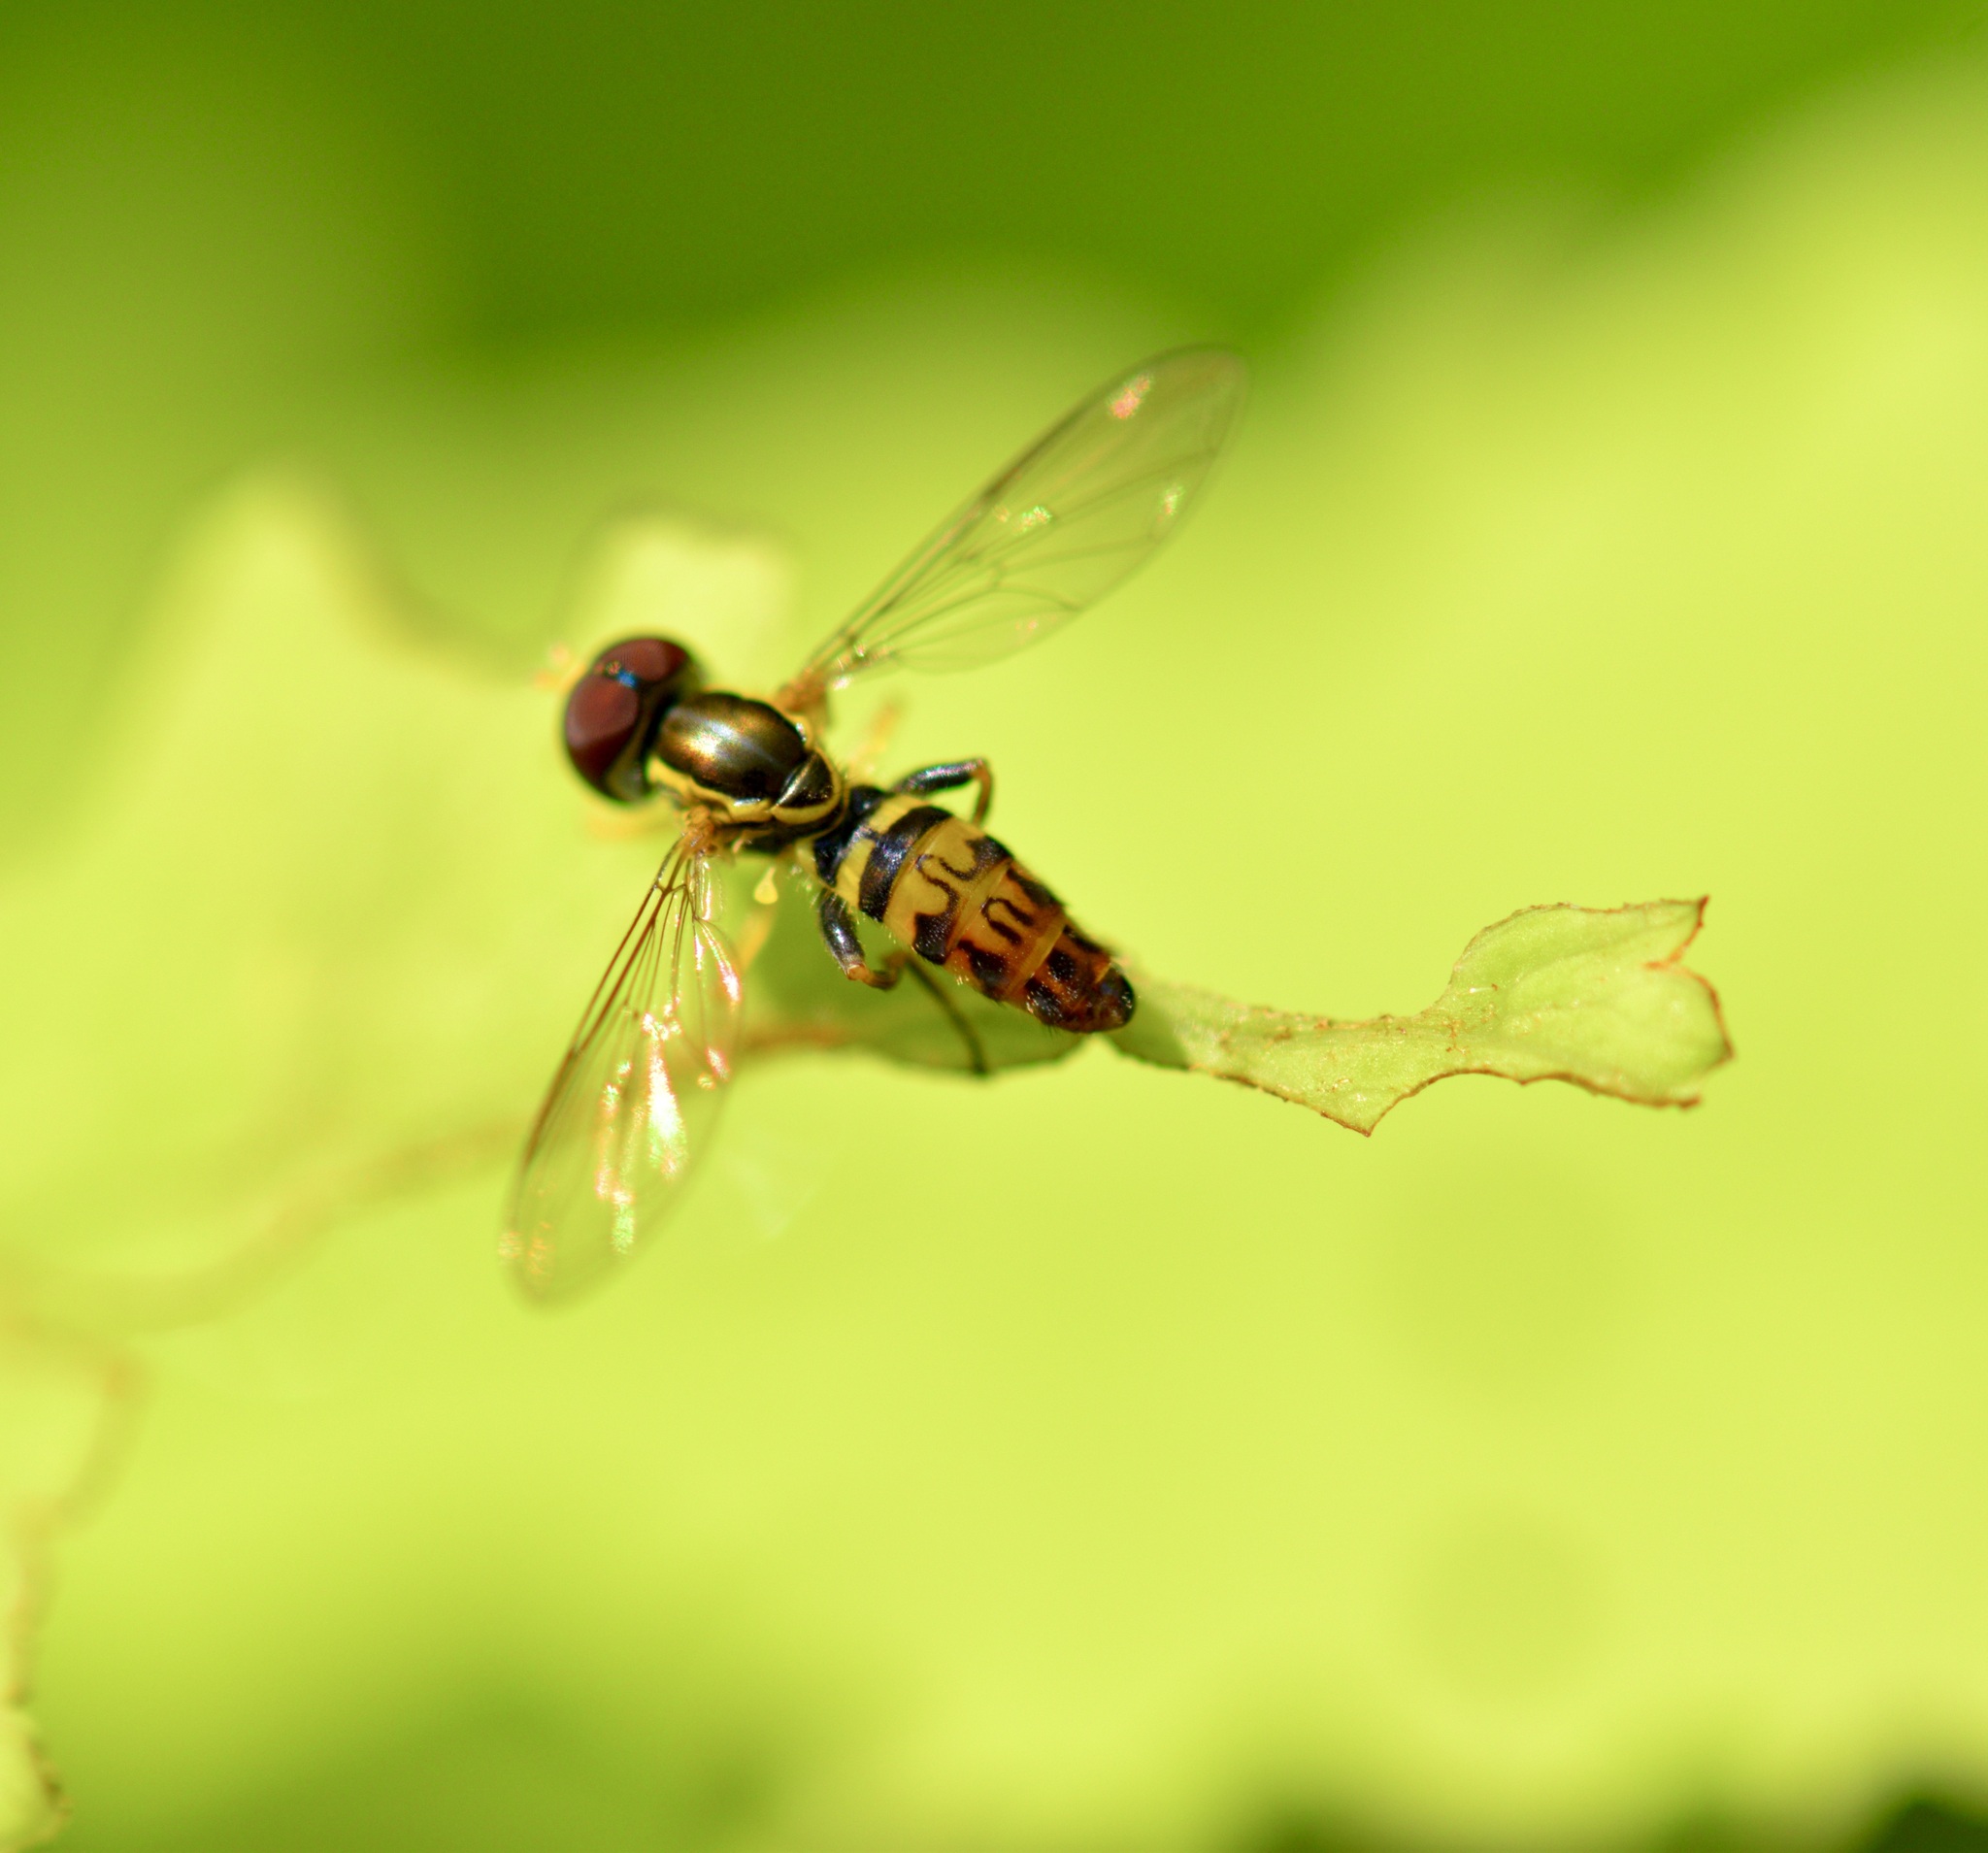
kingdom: Animalia
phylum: Arthropoda
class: Insecta
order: Diptera
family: Syrphidae
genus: Toxomerus
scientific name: Toxomerus geminatus
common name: Eastern calligrapher
